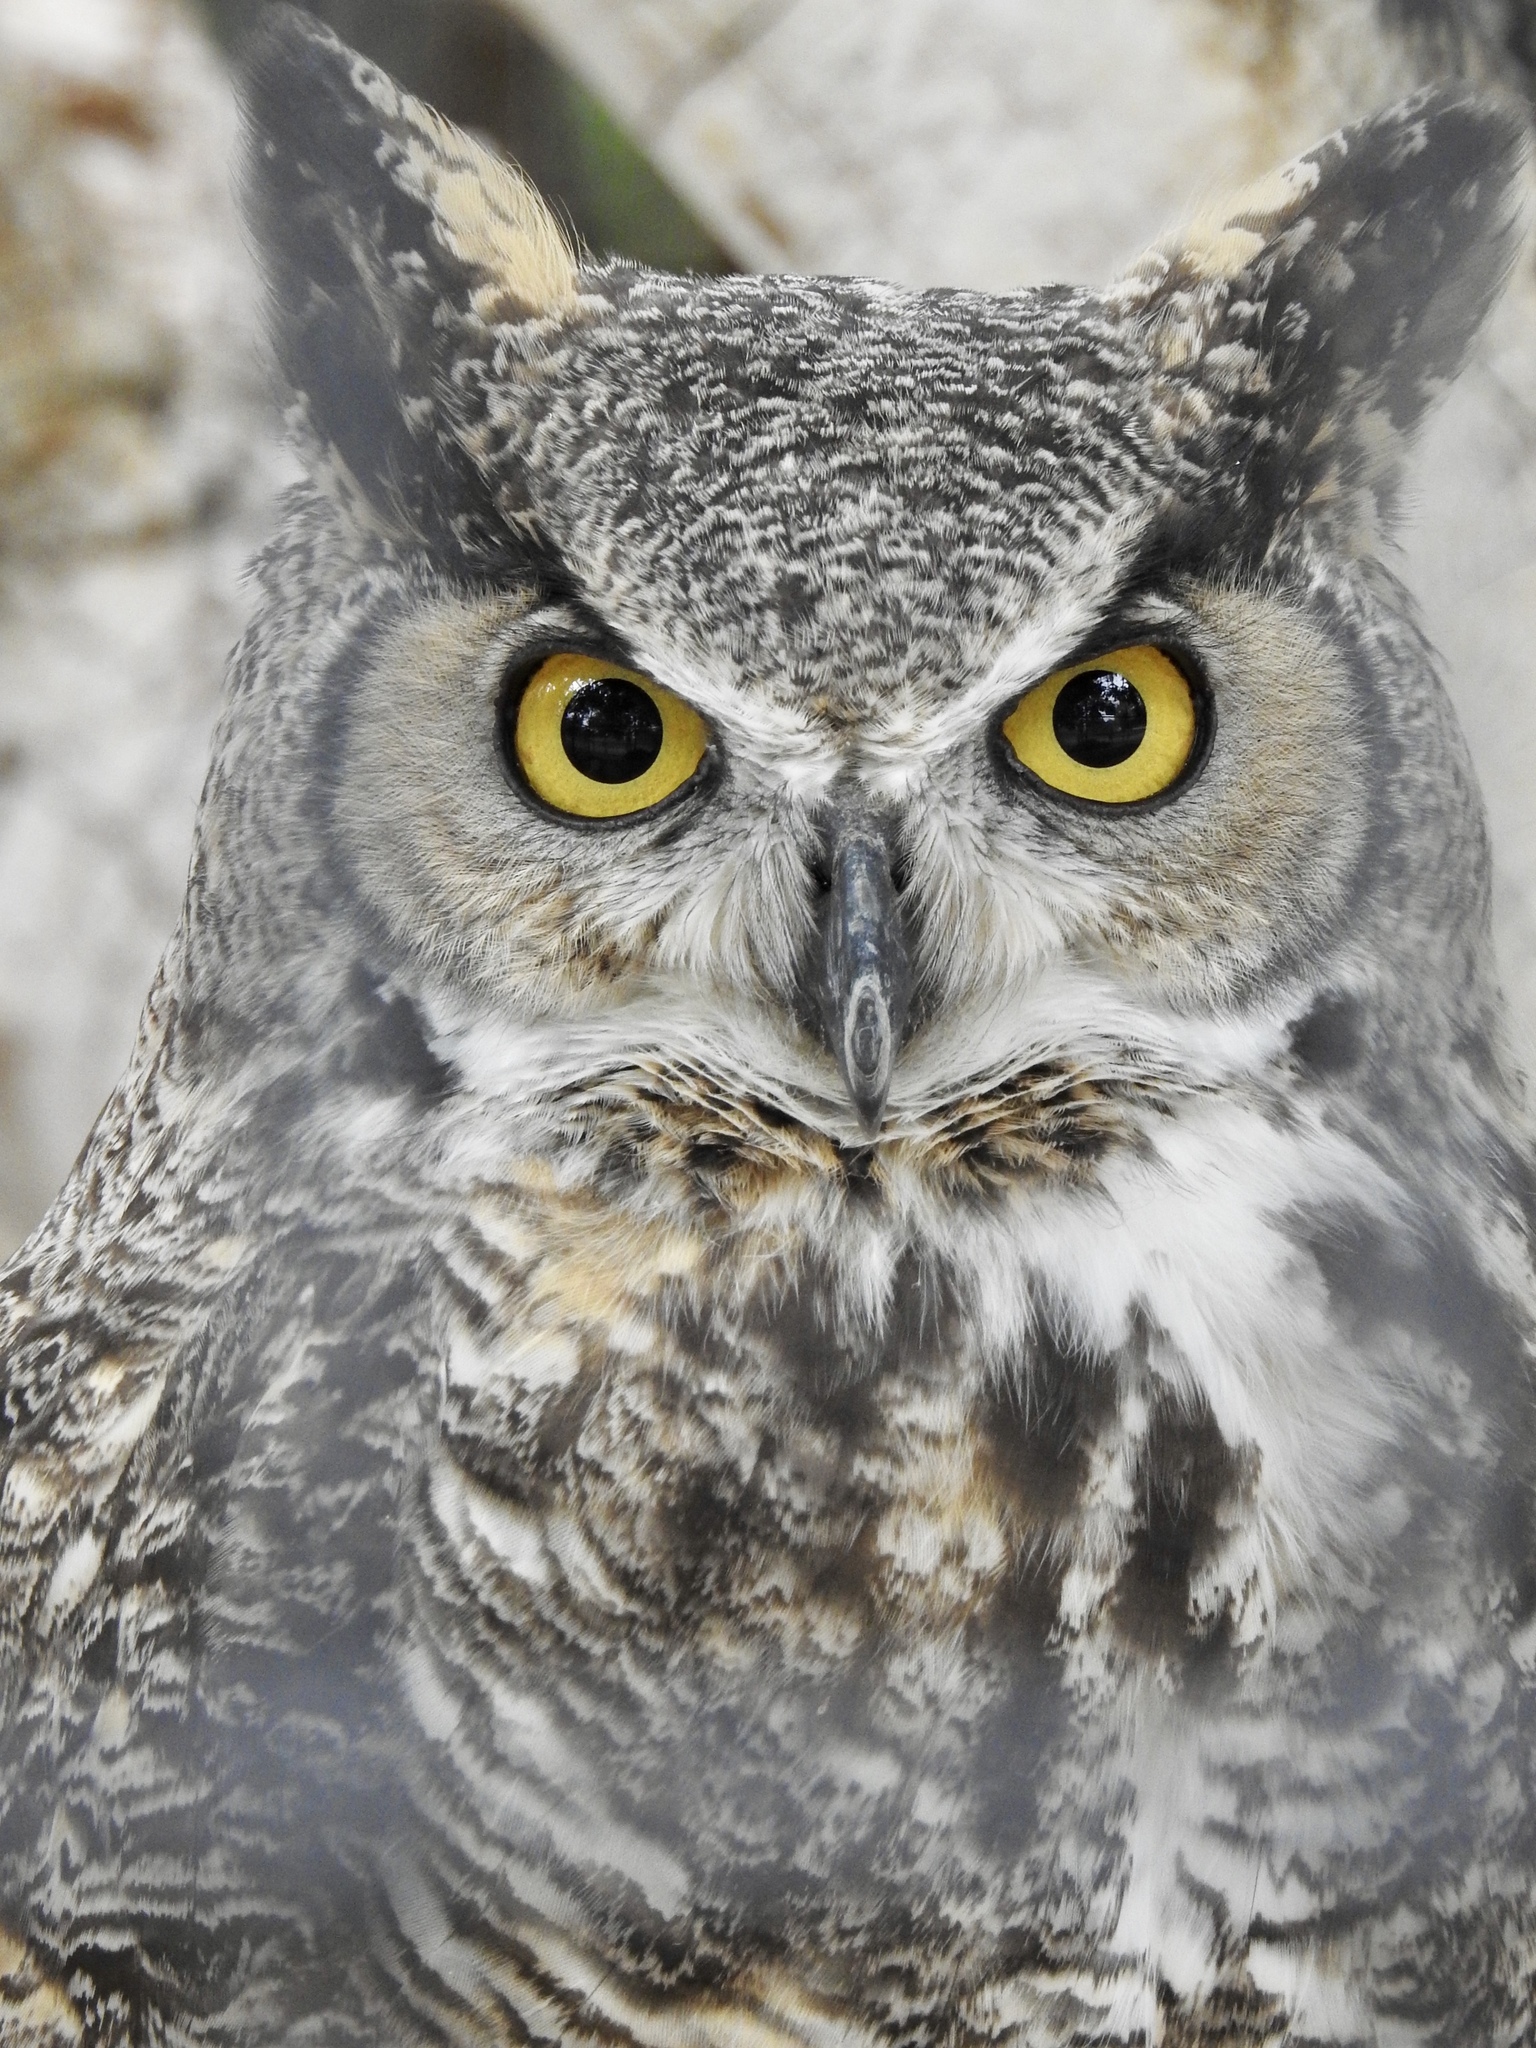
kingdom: Animalia
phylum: Chordata
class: Aves
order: Strigiformes
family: Strigidae
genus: Bubo
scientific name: Bubo virginianus
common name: Great horned owl
